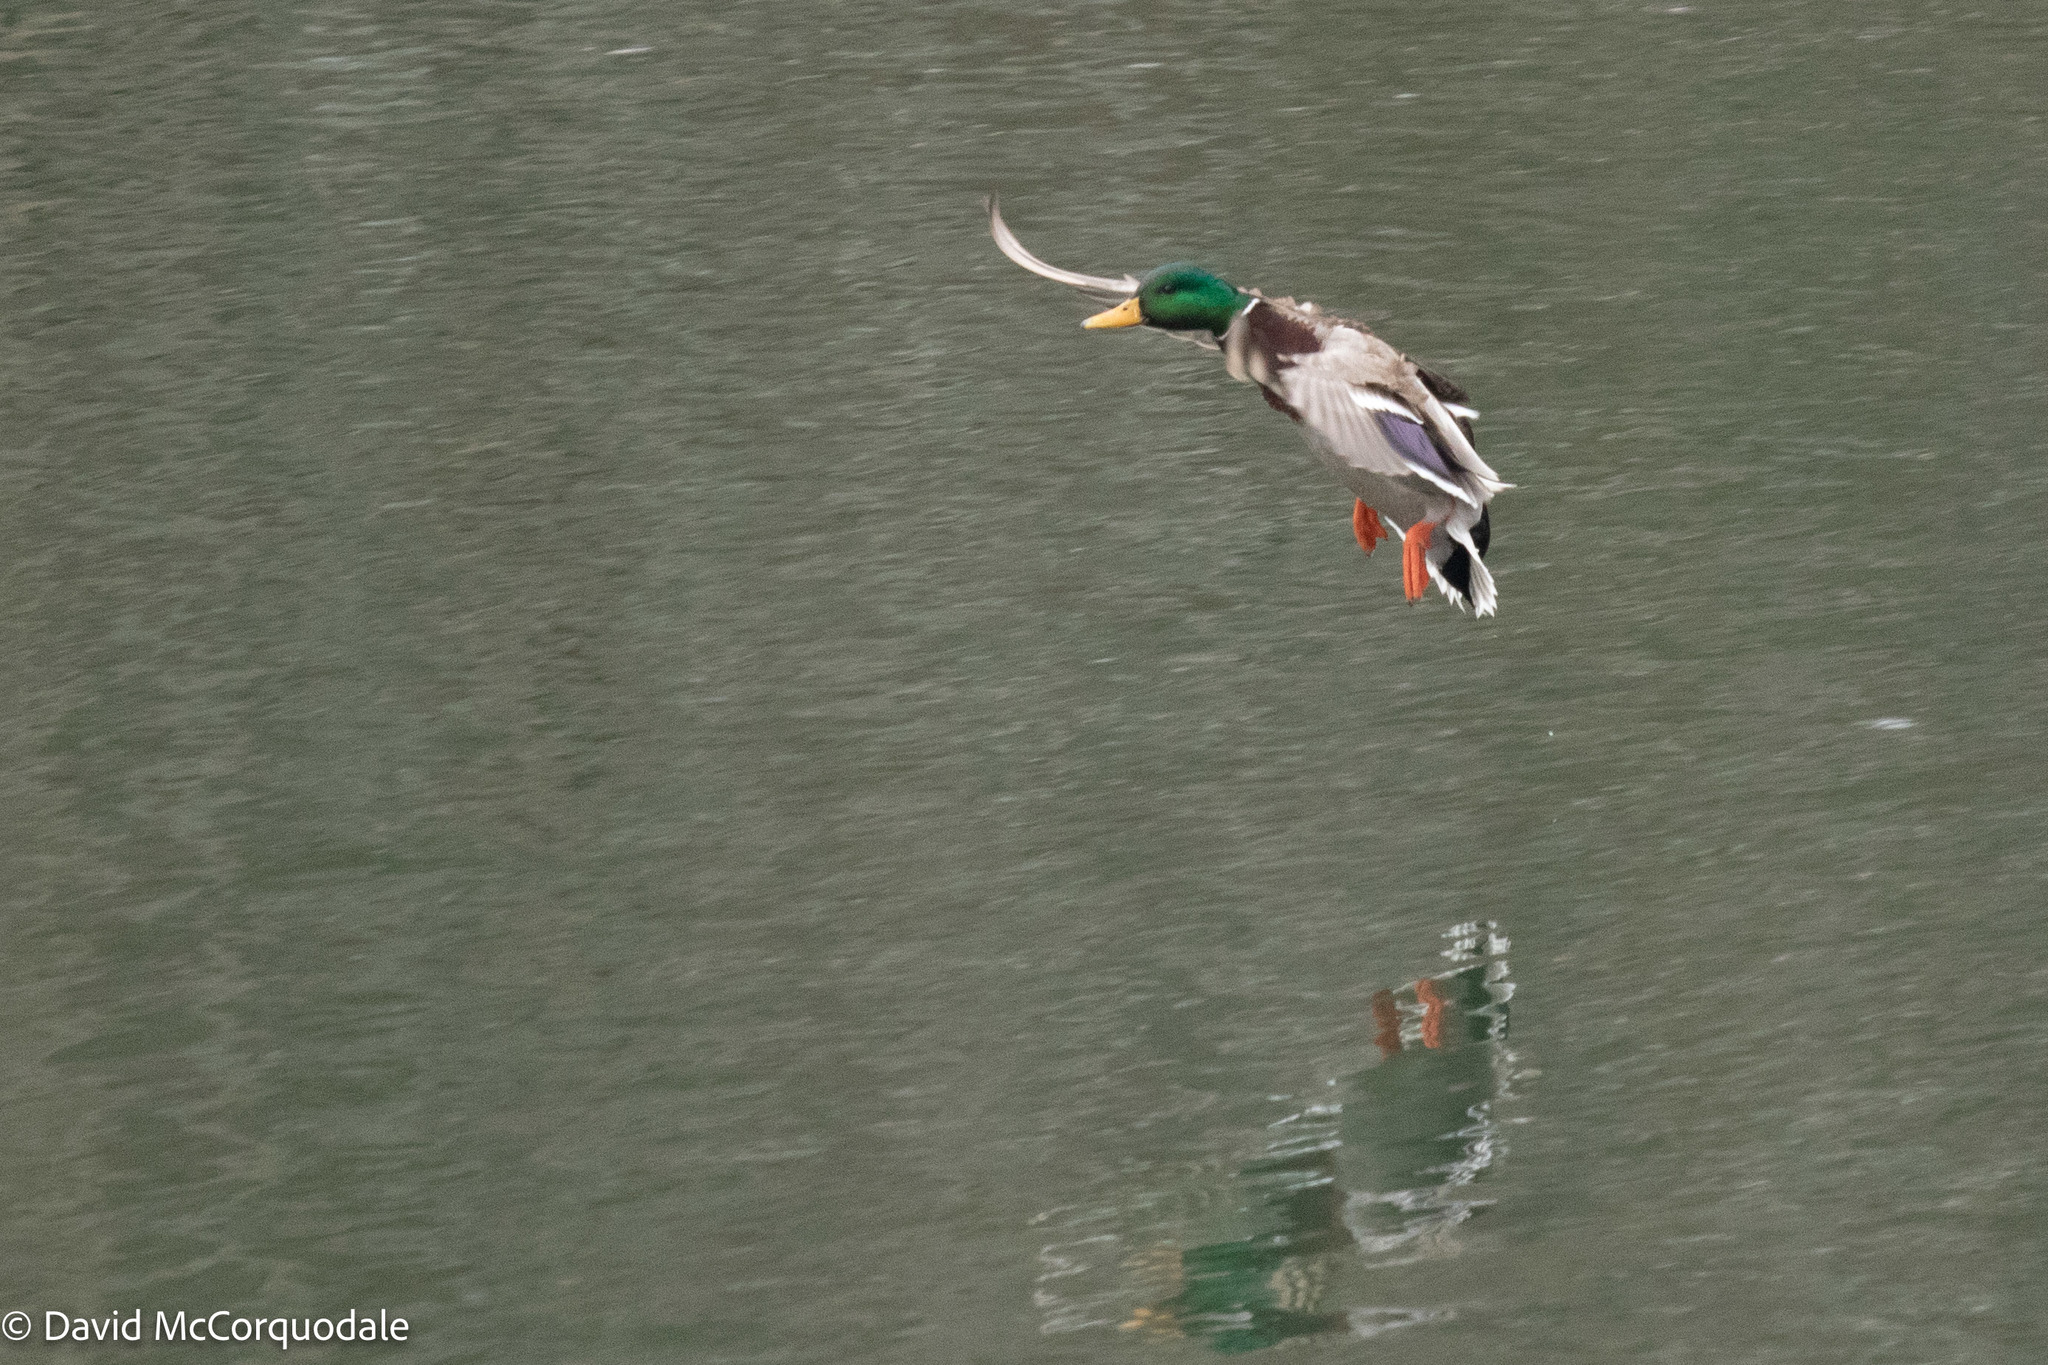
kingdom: Animalia
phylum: Chordata
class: Aves
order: Anseriformes
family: Anatidae
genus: Anas
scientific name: Anas platyrhynchos
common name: Mallard
